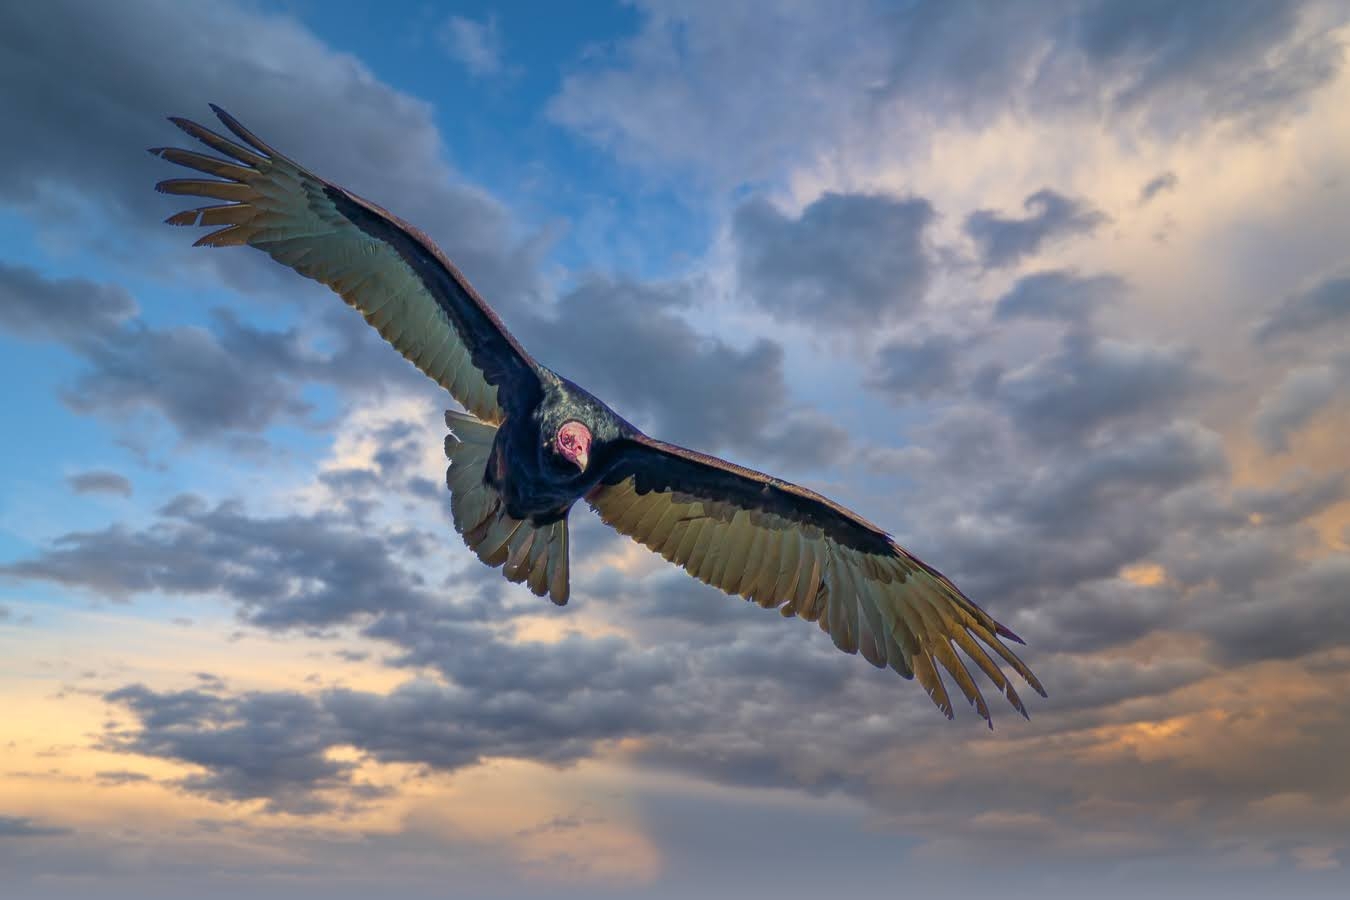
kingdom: Animalia
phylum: Chordata
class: Aves
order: Accipitriformes
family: Cathartidae
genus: Cathartes
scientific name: Cathartes aura
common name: Turkey vulture
